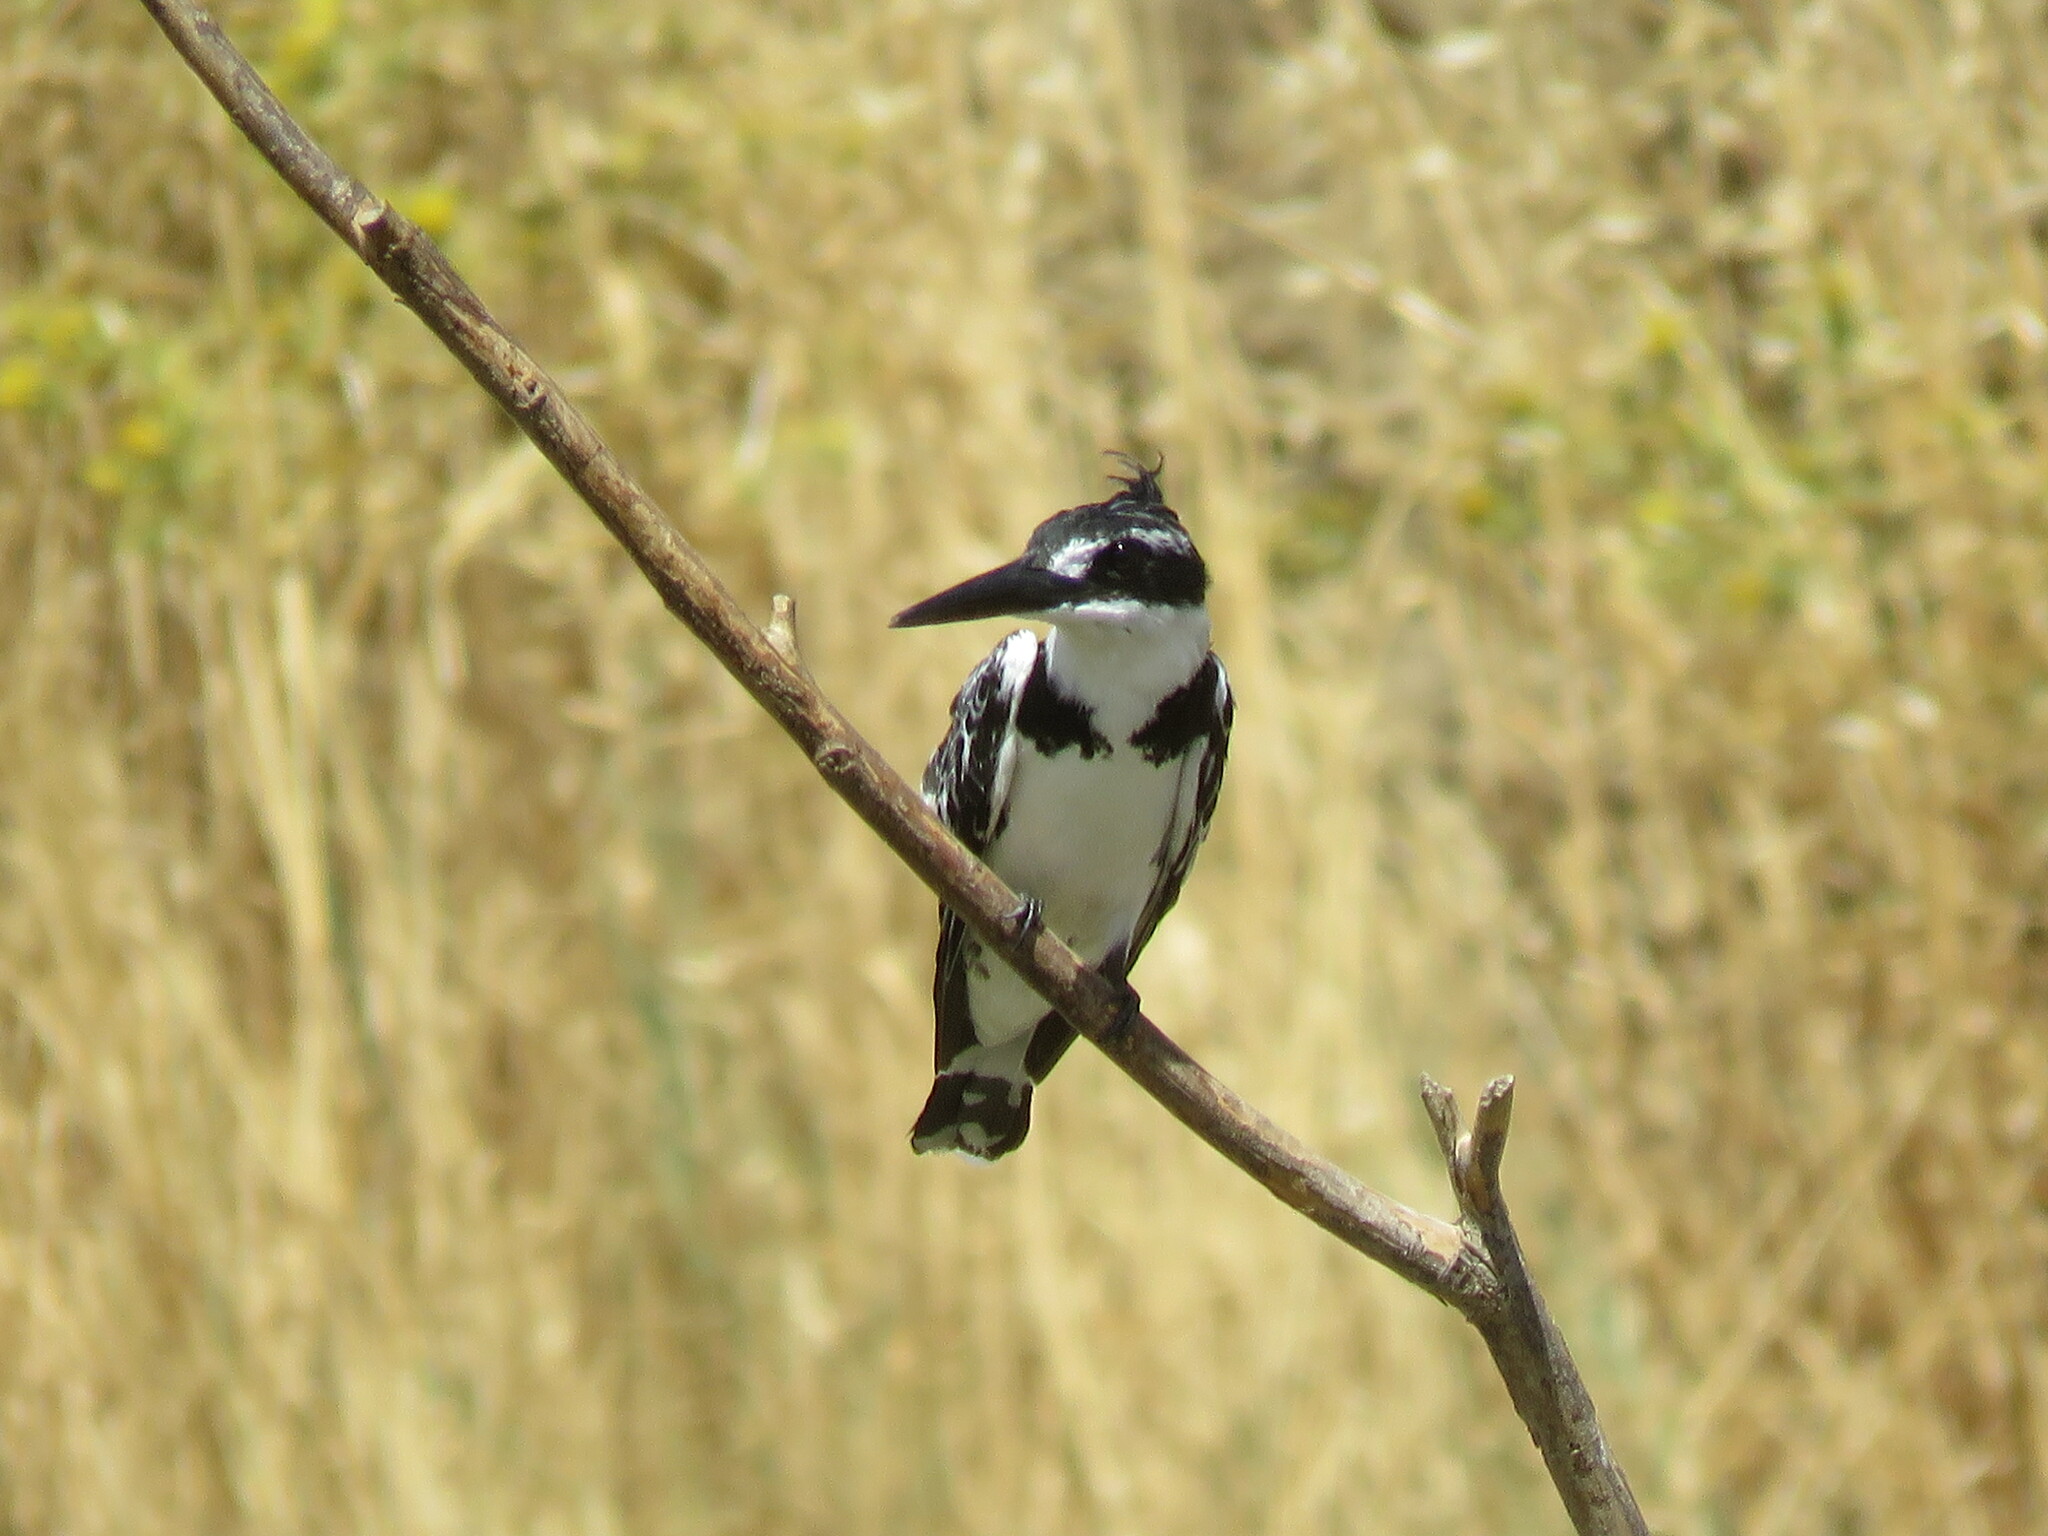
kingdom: Animalia
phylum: Chordata
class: Aves
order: Coraciiformes
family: Alcedinidae
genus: Ceryle
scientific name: Ceryle rudis
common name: Pied kingfisher
